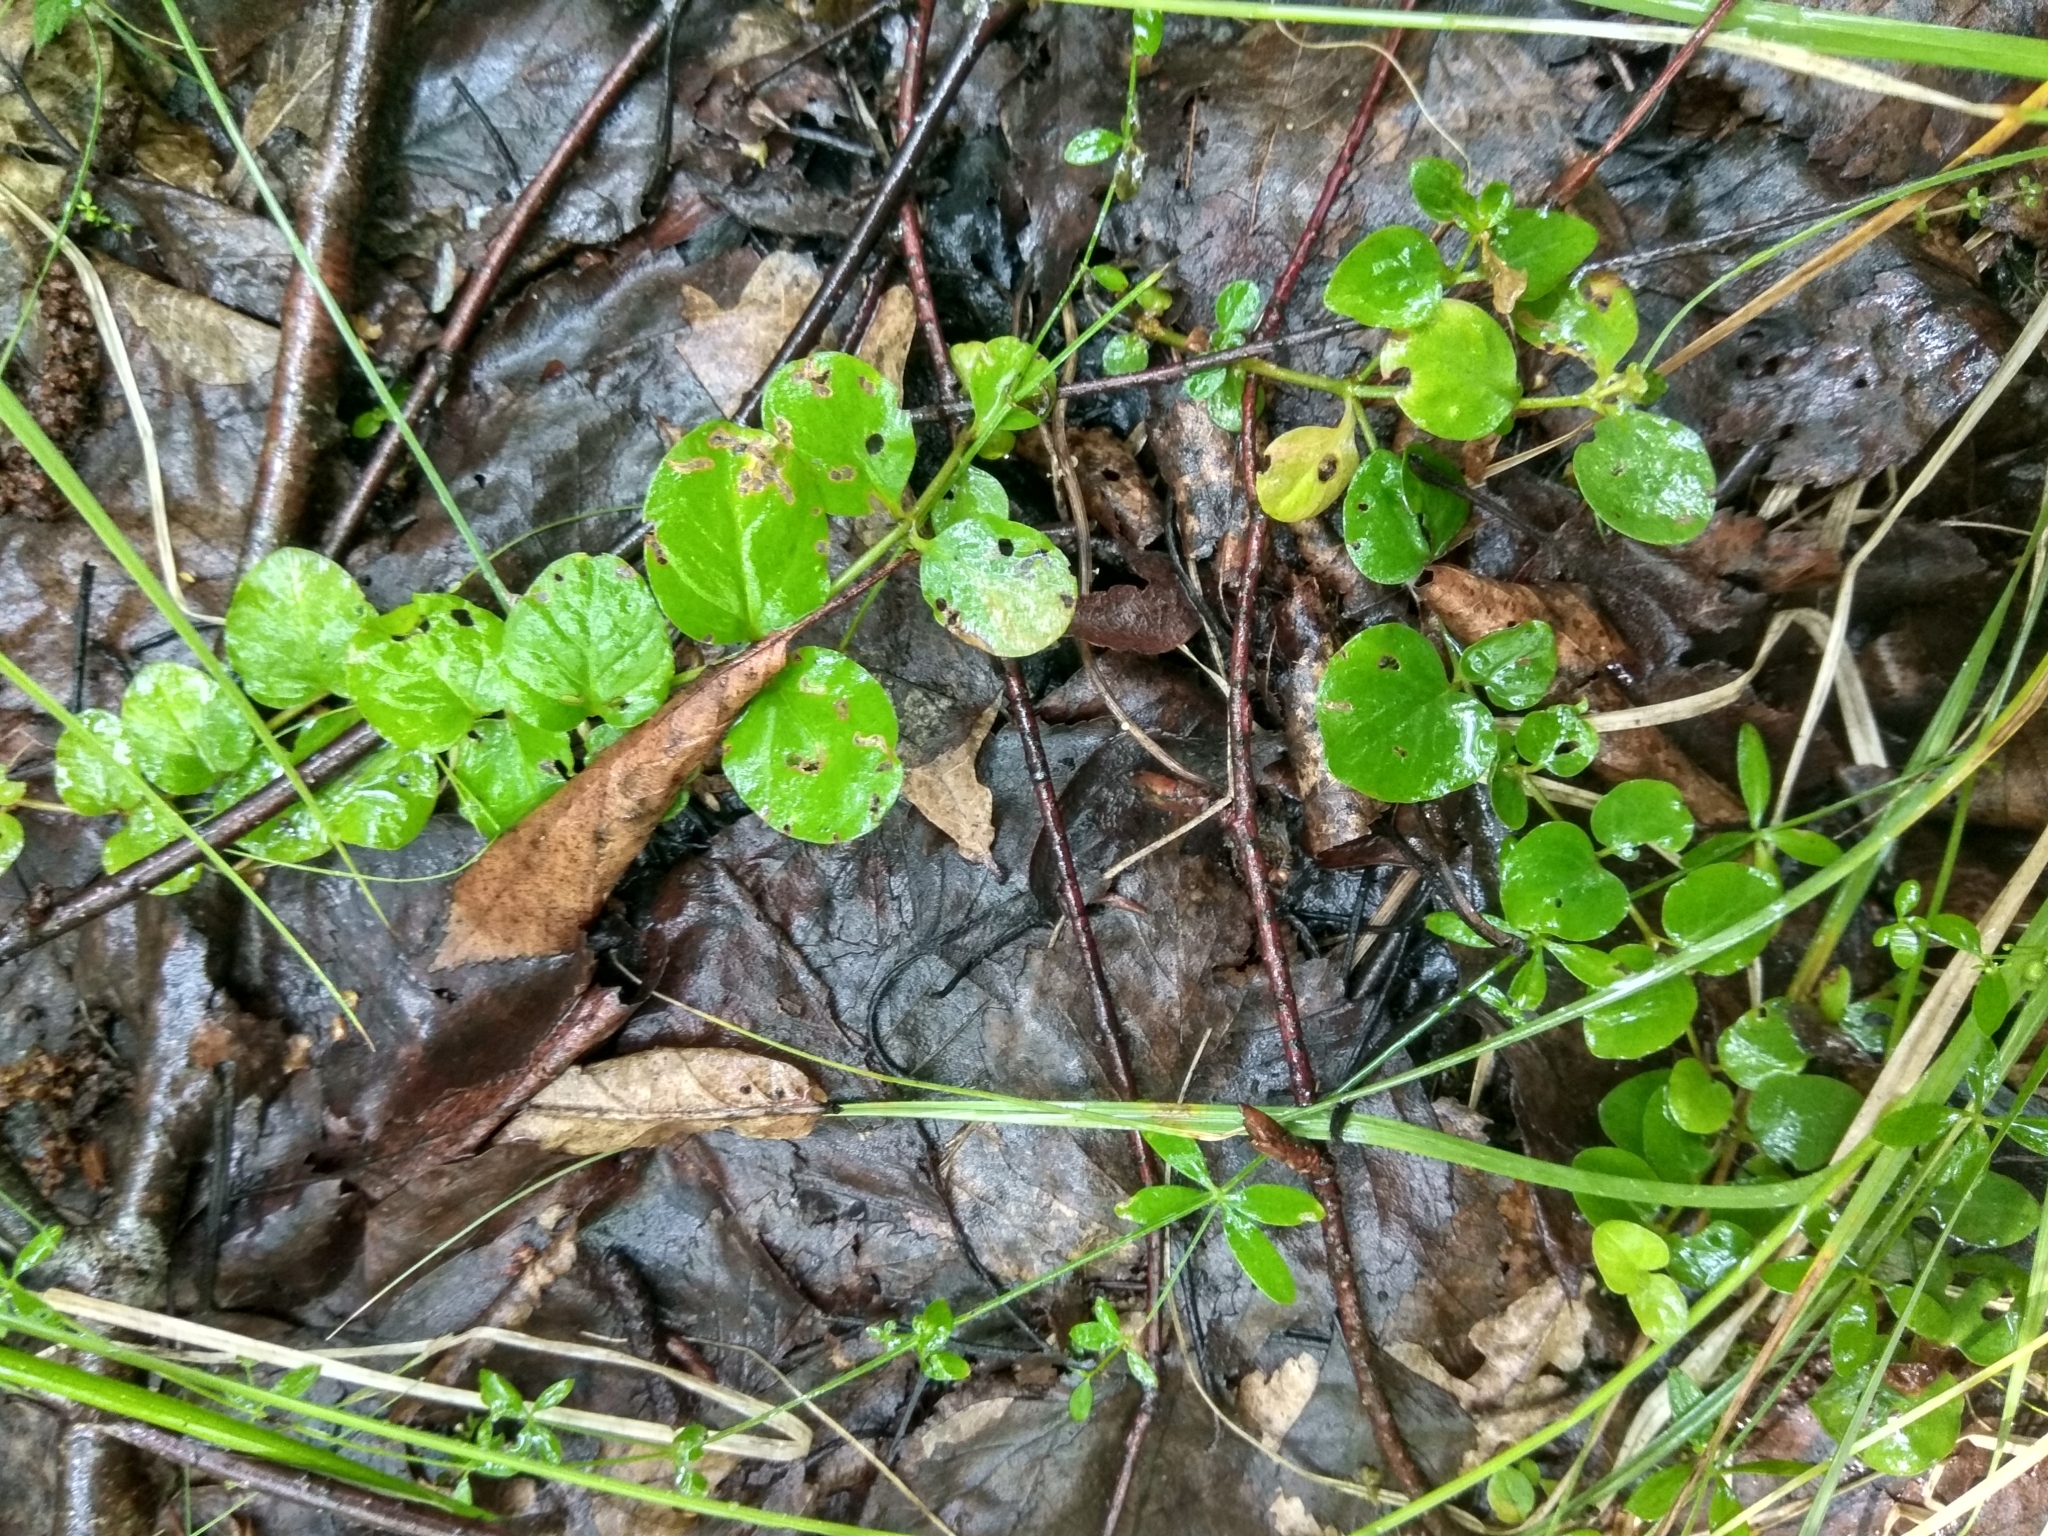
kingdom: Plantae
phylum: Tracheophyta
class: Magnoliopsida
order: Ericales
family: Primulaceae
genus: Lysimachia
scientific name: Lysimachia nummularia
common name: Moneywort
